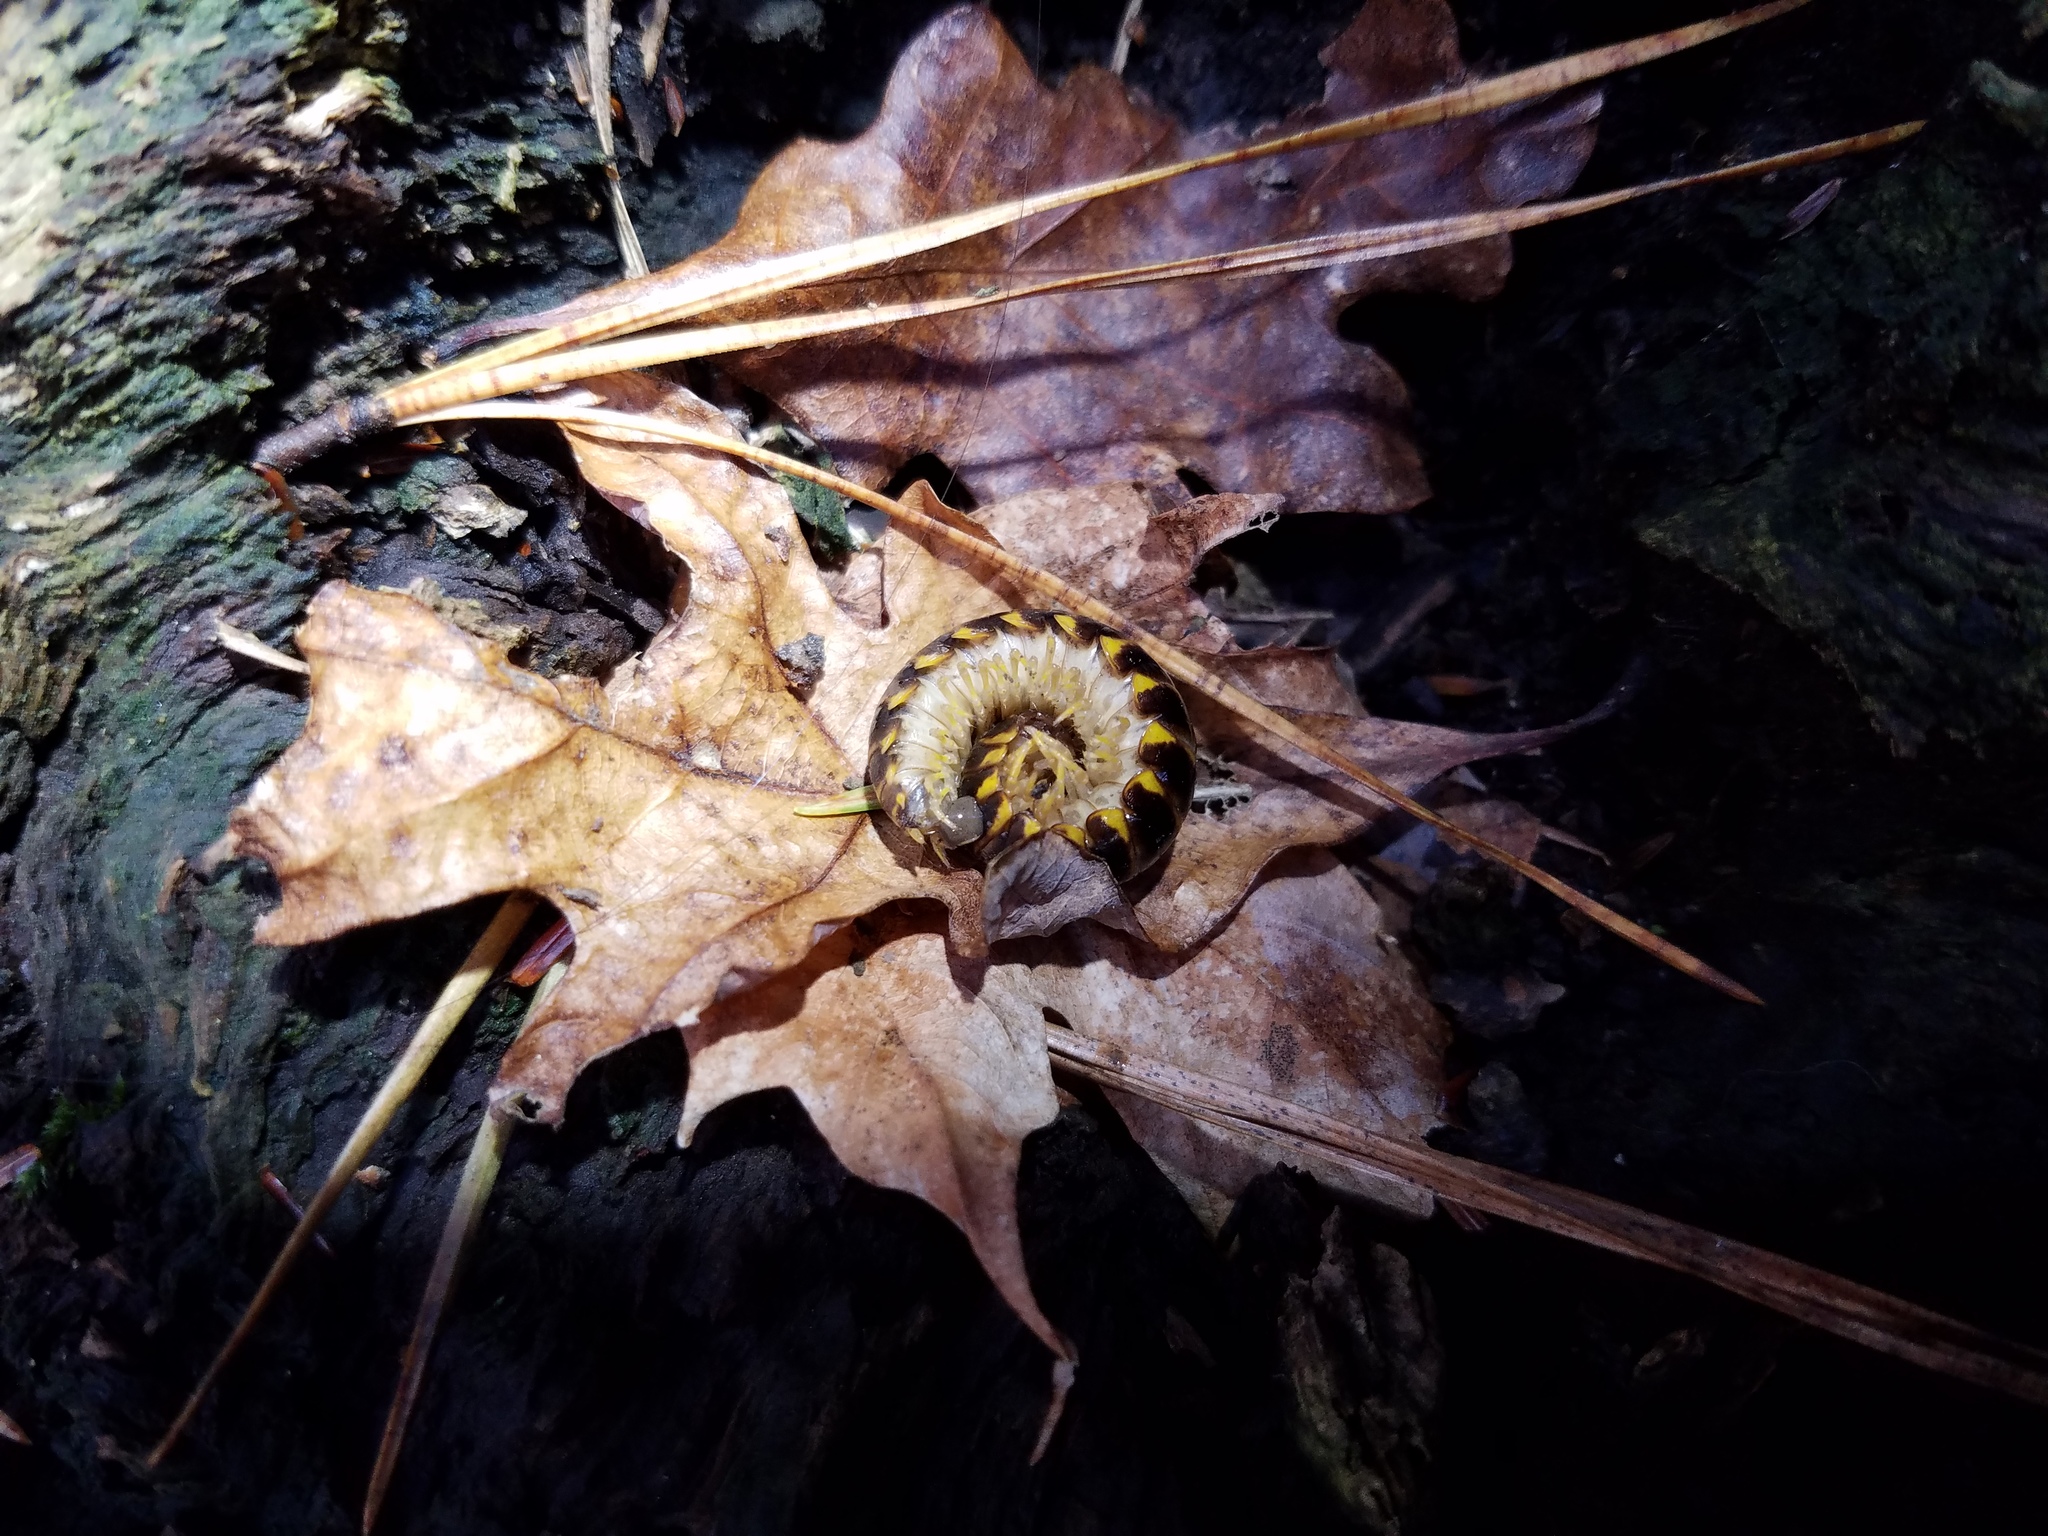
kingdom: Animalia
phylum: Arthropoda
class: Diplopoda
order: Polydesmida
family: Xystodesmidae
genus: Appalachioria
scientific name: Appalachioria calcaria
